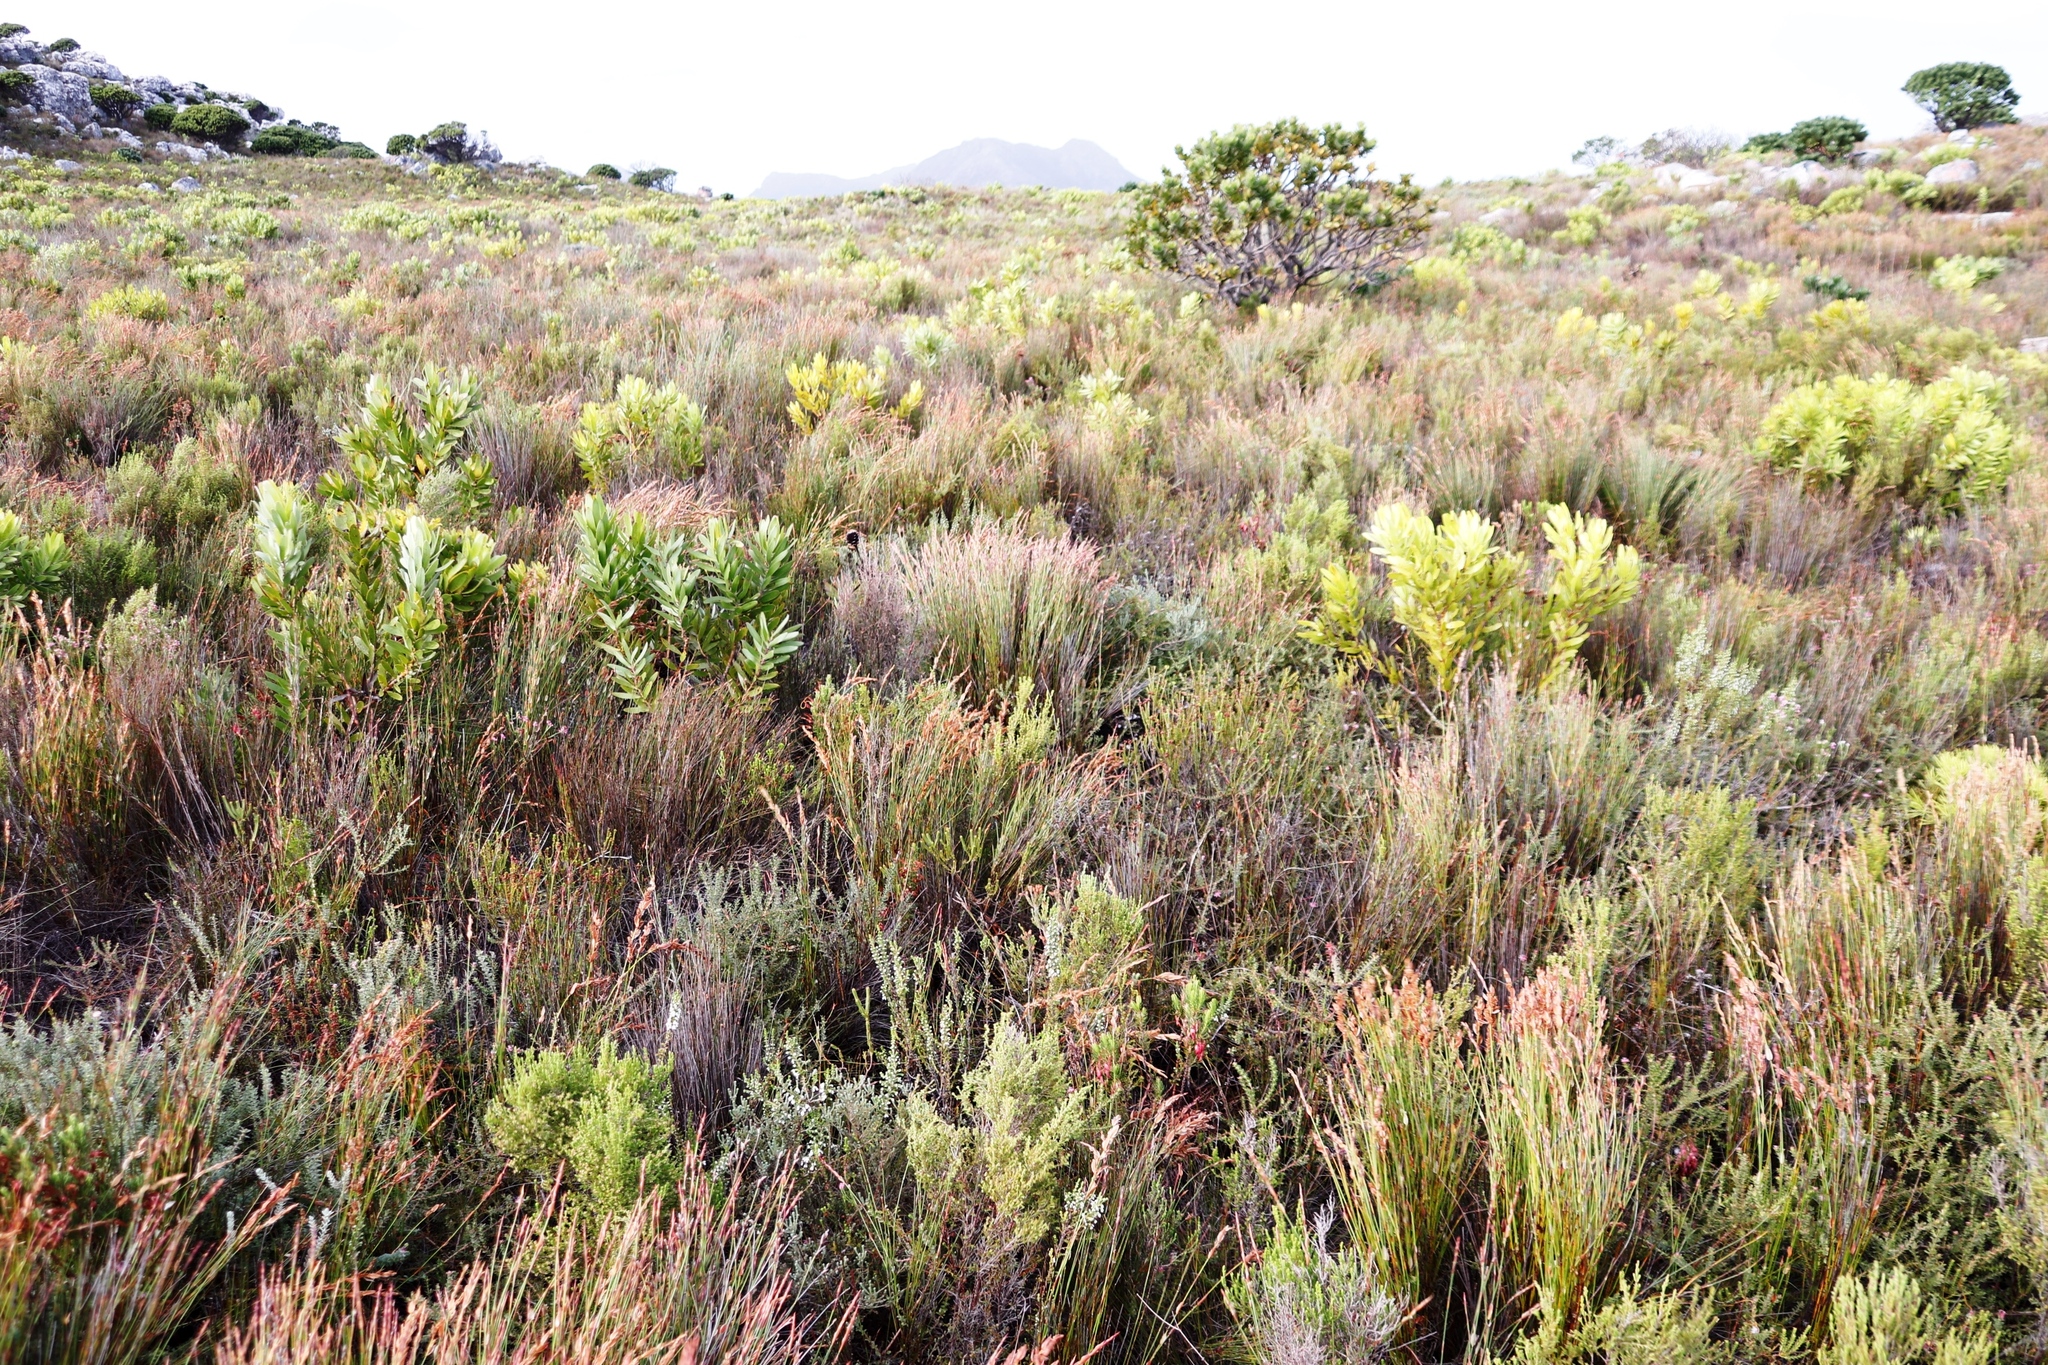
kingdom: Plantae
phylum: Tracheophyta
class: Liliopsida
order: Poales
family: Restionaceae
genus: Elegia
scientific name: Elegia stipularis
